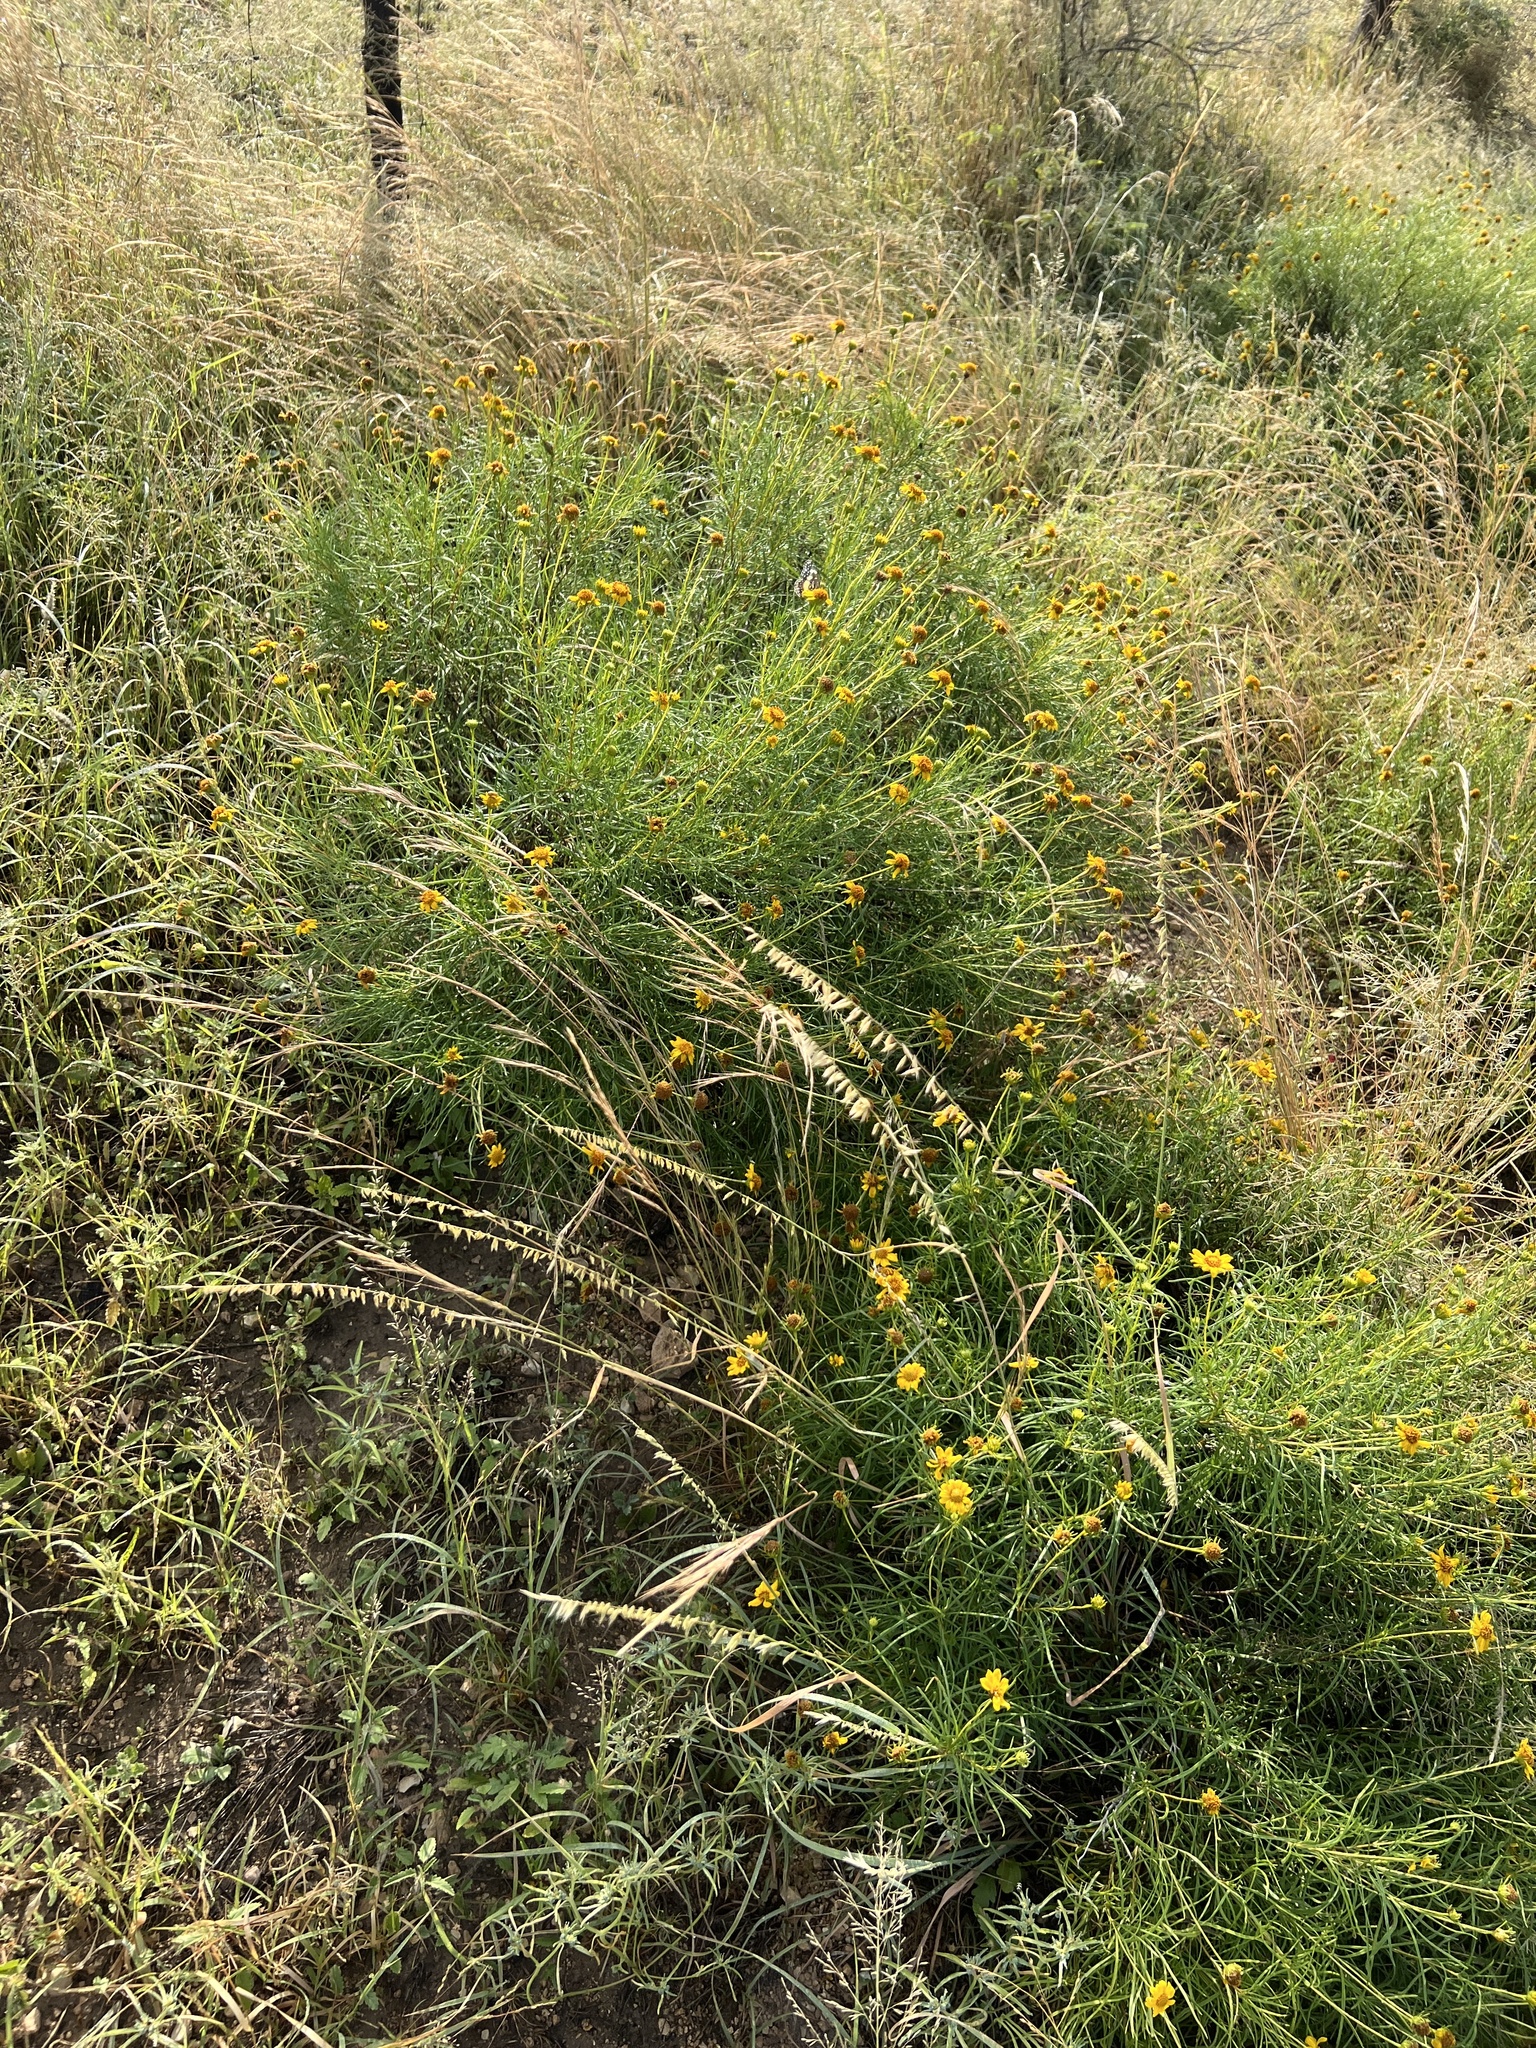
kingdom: Plantae
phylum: Tracheophyta
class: Liliopsida
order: Poales
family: Poaceae
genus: Bouteloua
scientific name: Bouteloua curtipendula
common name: Side-oats grama
